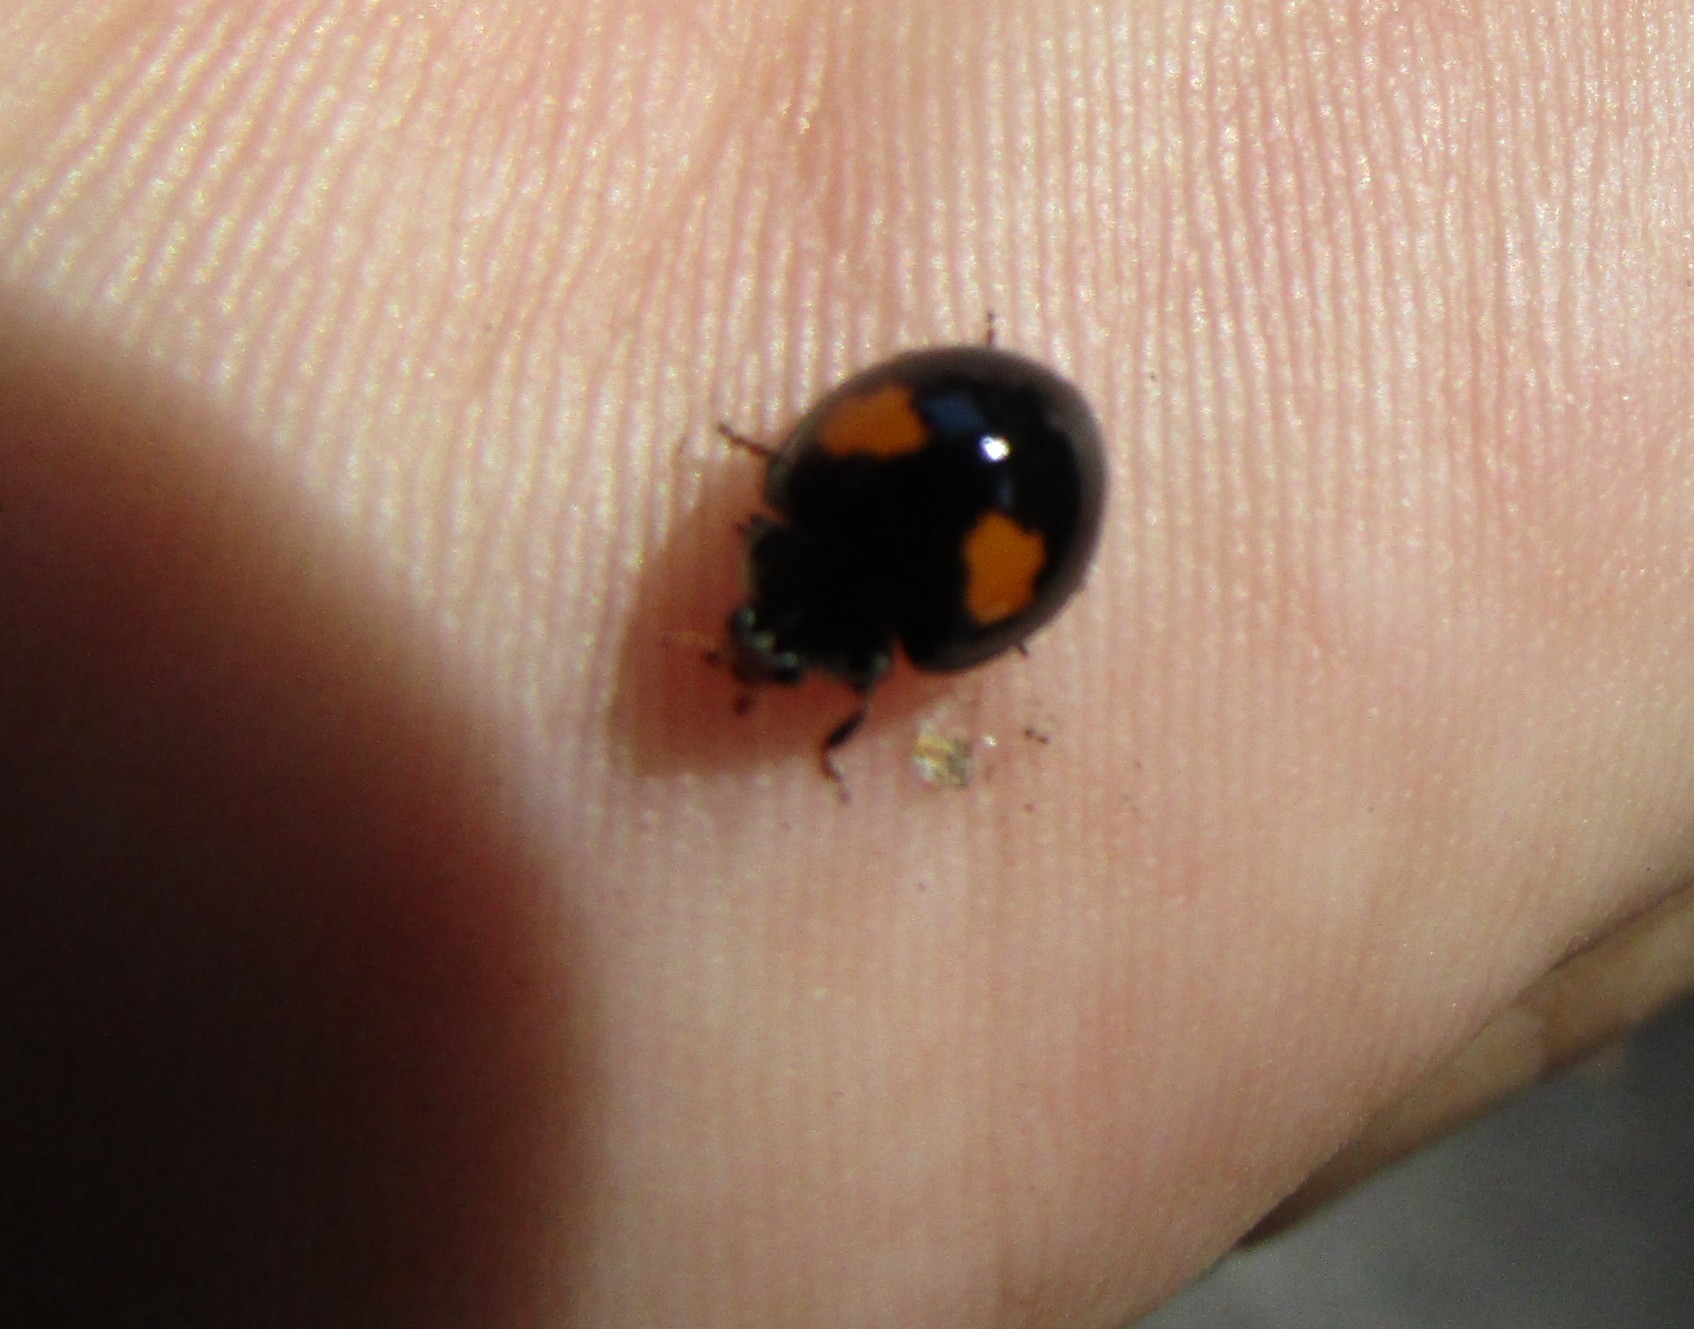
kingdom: Animalia
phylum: Arthropoda
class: Insecta
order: Coleoptera
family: Coccinellidae
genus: Olla
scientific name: Olla v-nigrum
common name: Ashy gray lady beetle
